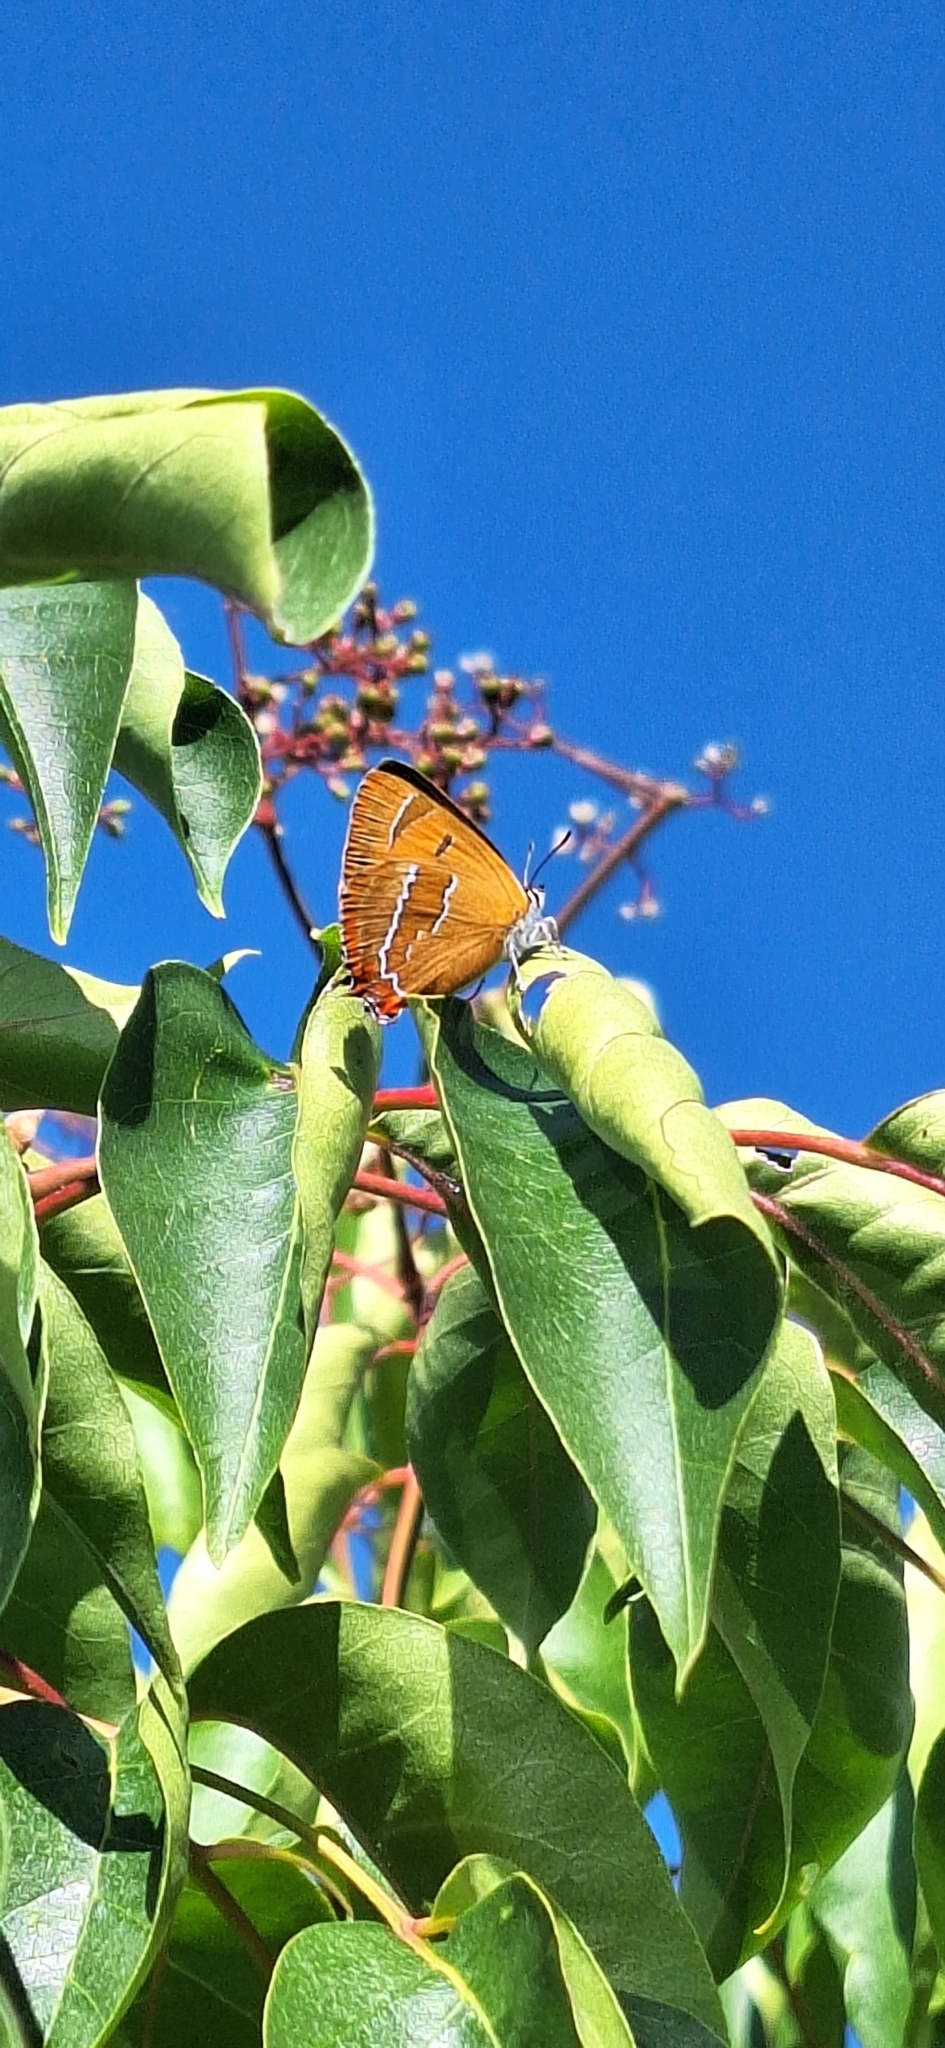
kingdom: Animalia
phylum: Arthropoda
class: Insecta
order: Lepidoptera
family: Lycaenidae
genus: Thecla
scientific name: Thecla betulae
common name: Brown hairstreak
